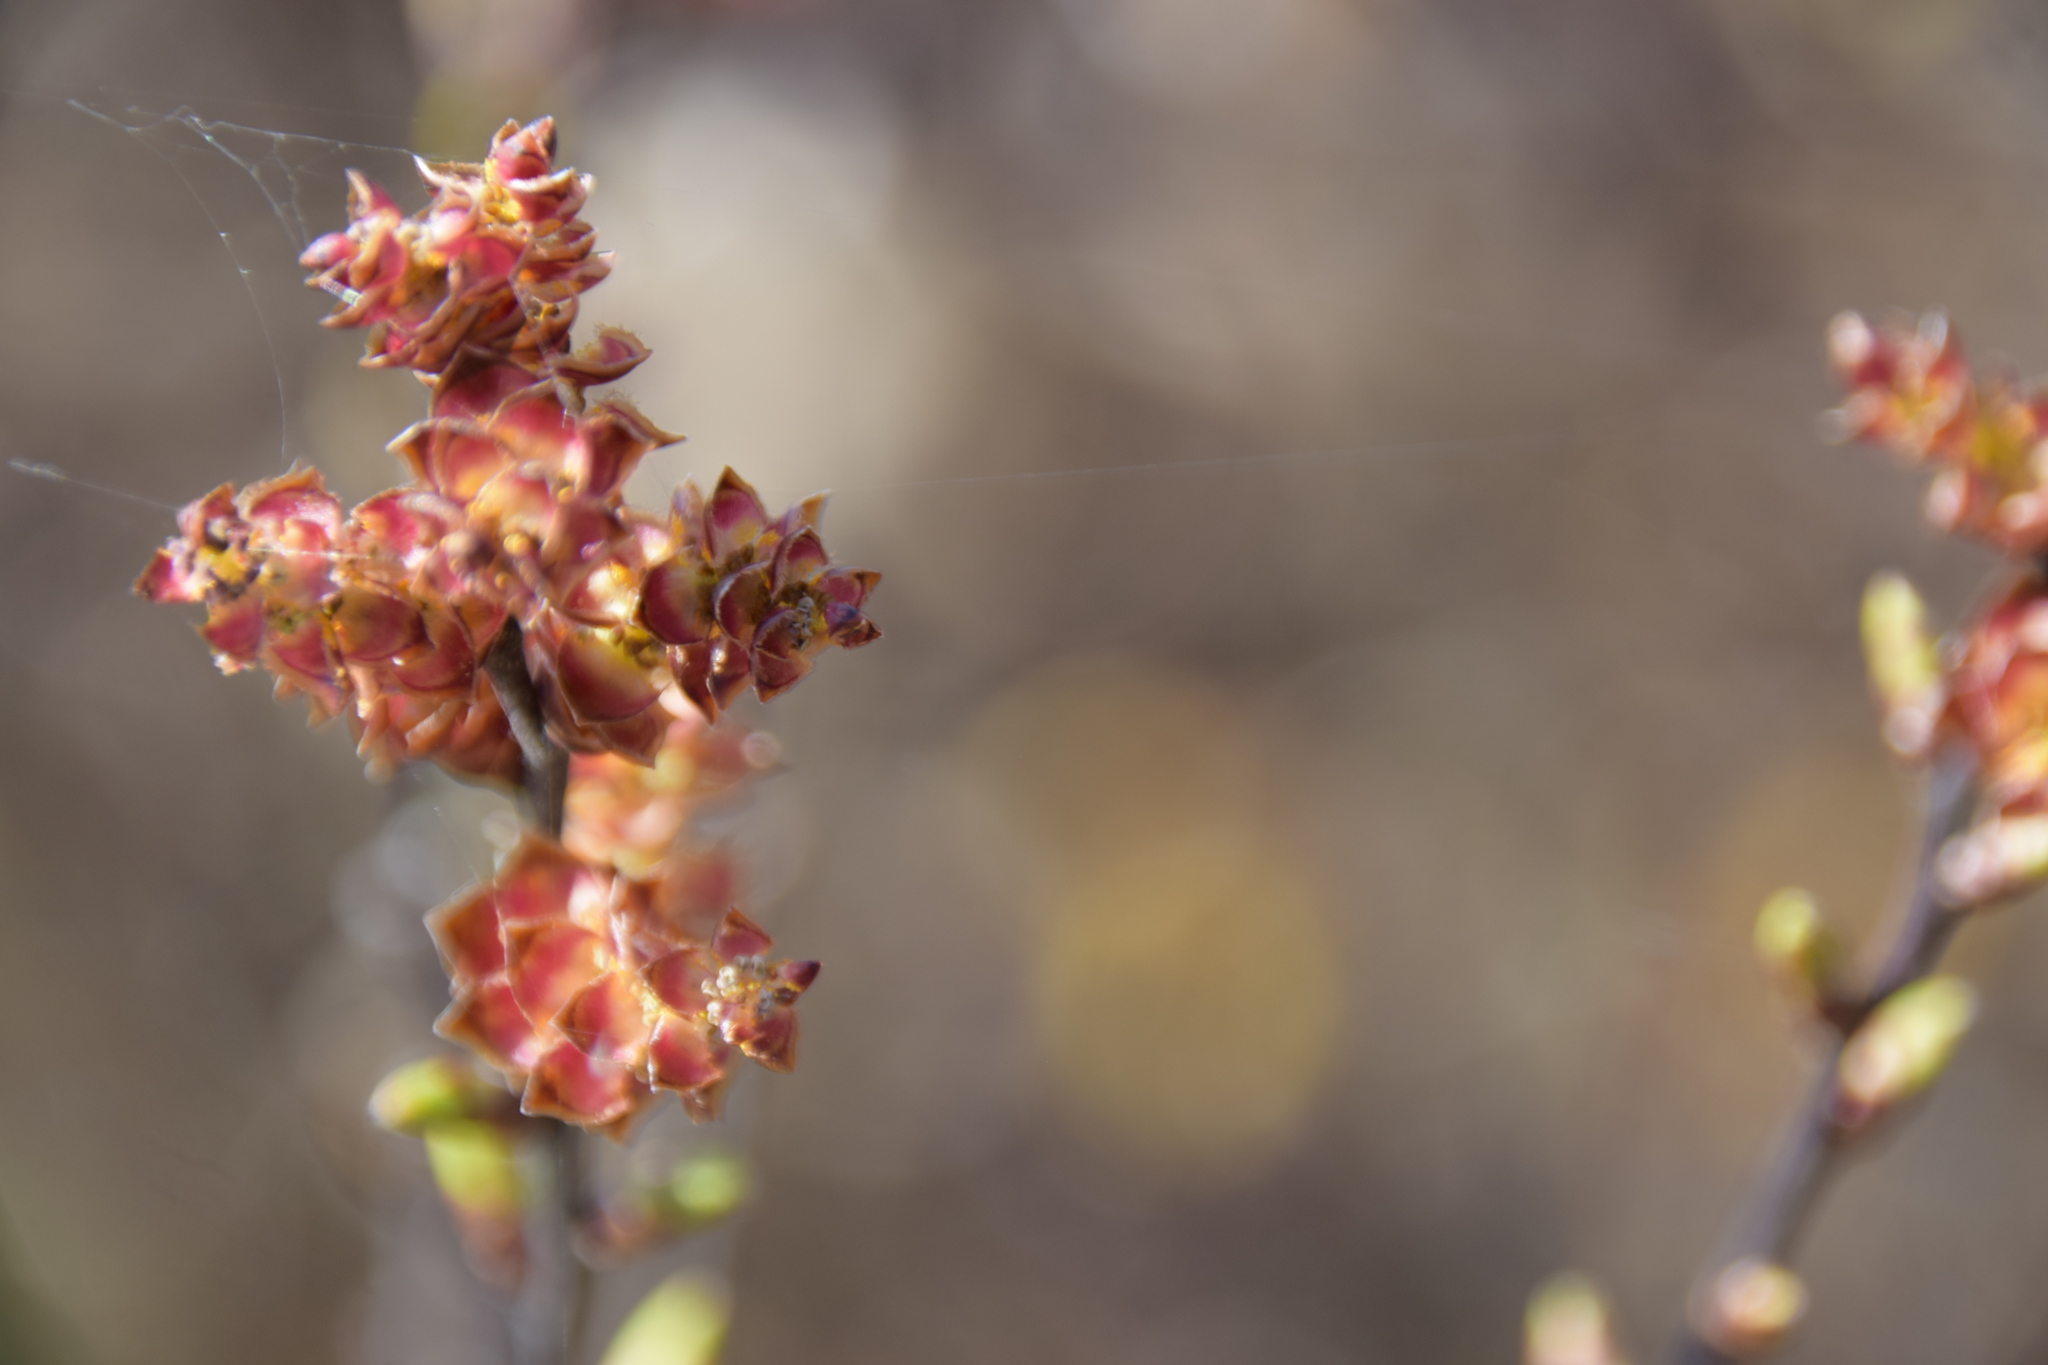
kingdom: Plantae
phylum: Tracheophyta
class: Magnoliopsida
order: Fagales
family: Myricaceae
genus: Myrica
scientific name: Myrica gale
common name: Sweet gale
